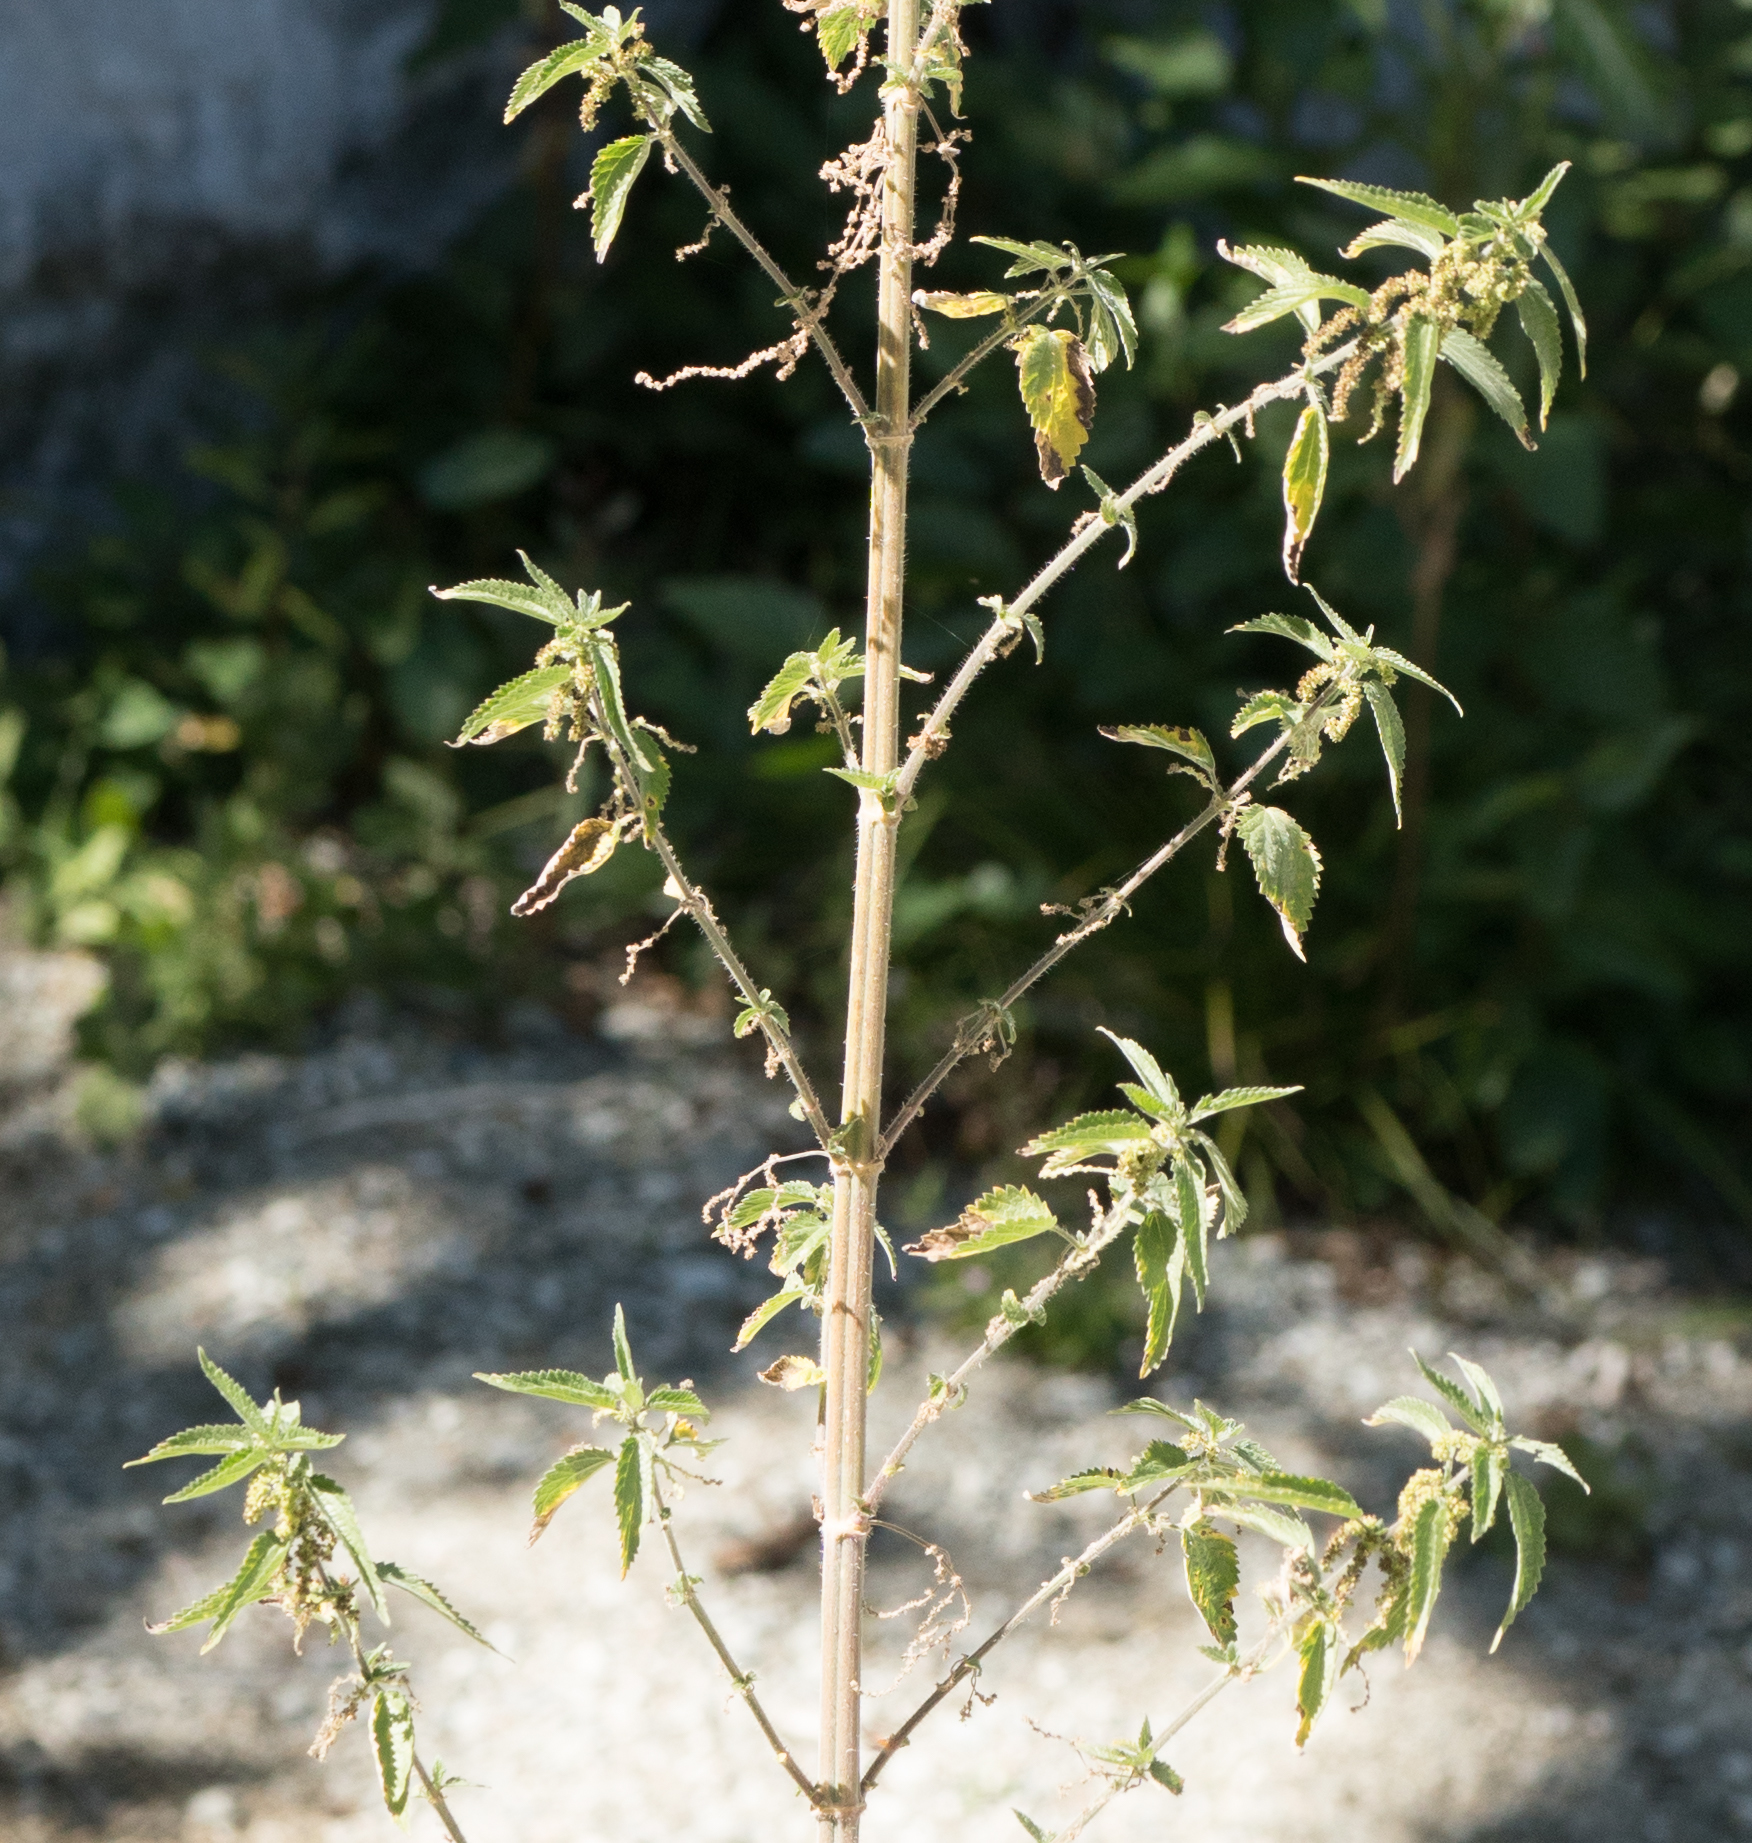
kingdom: Plantae
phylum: Tracheophyta
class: Magnoliopsida
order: Rosales
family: Urticaceae
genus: Urtica
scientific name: Urtica dioica
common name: Common nettle
